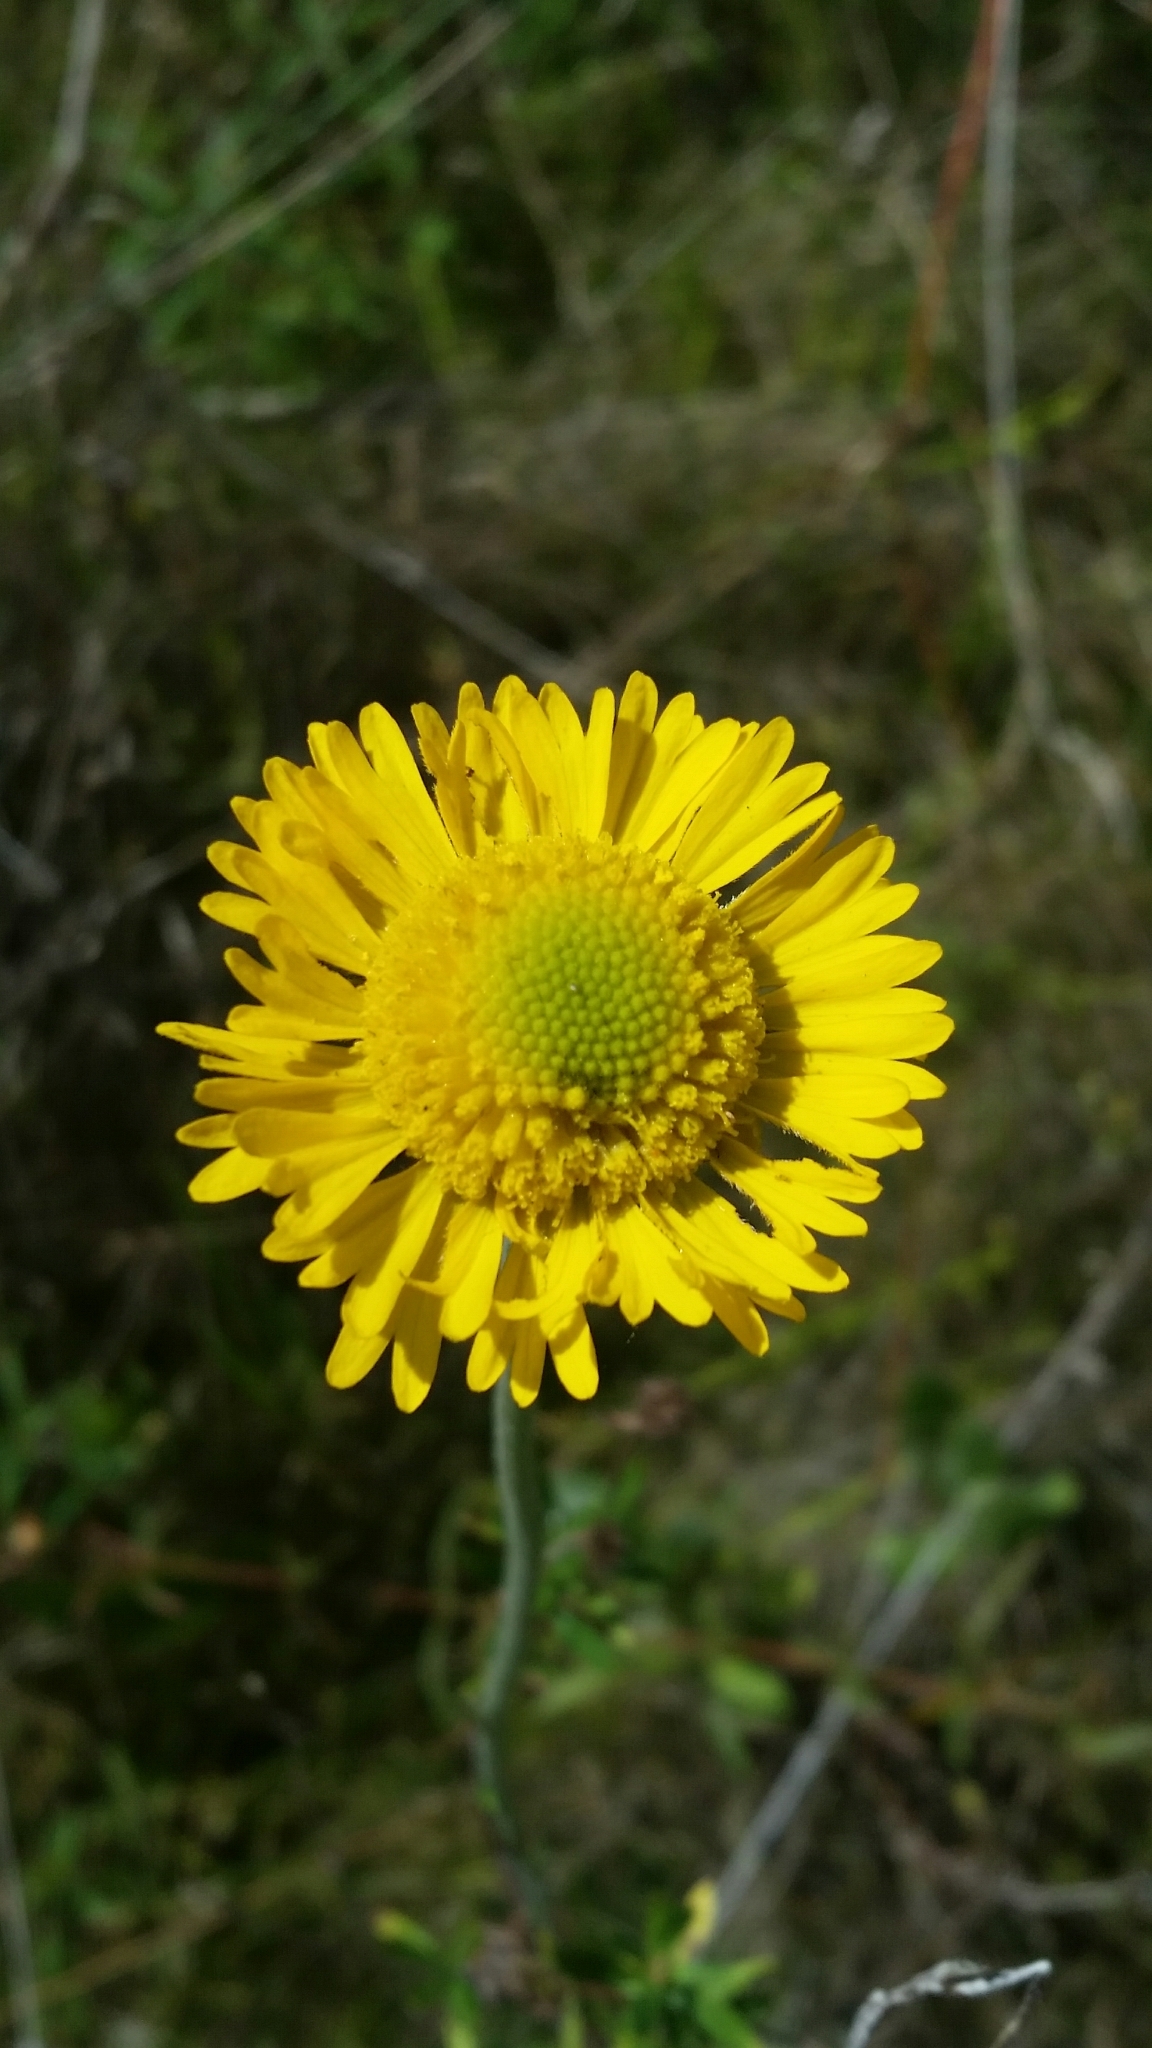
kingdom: Plantae
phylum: Tracheophyta
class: Magnoliopsida
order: Asterales
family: Asteraceae
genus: Helenium
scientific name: Helenium pinnatifidum
